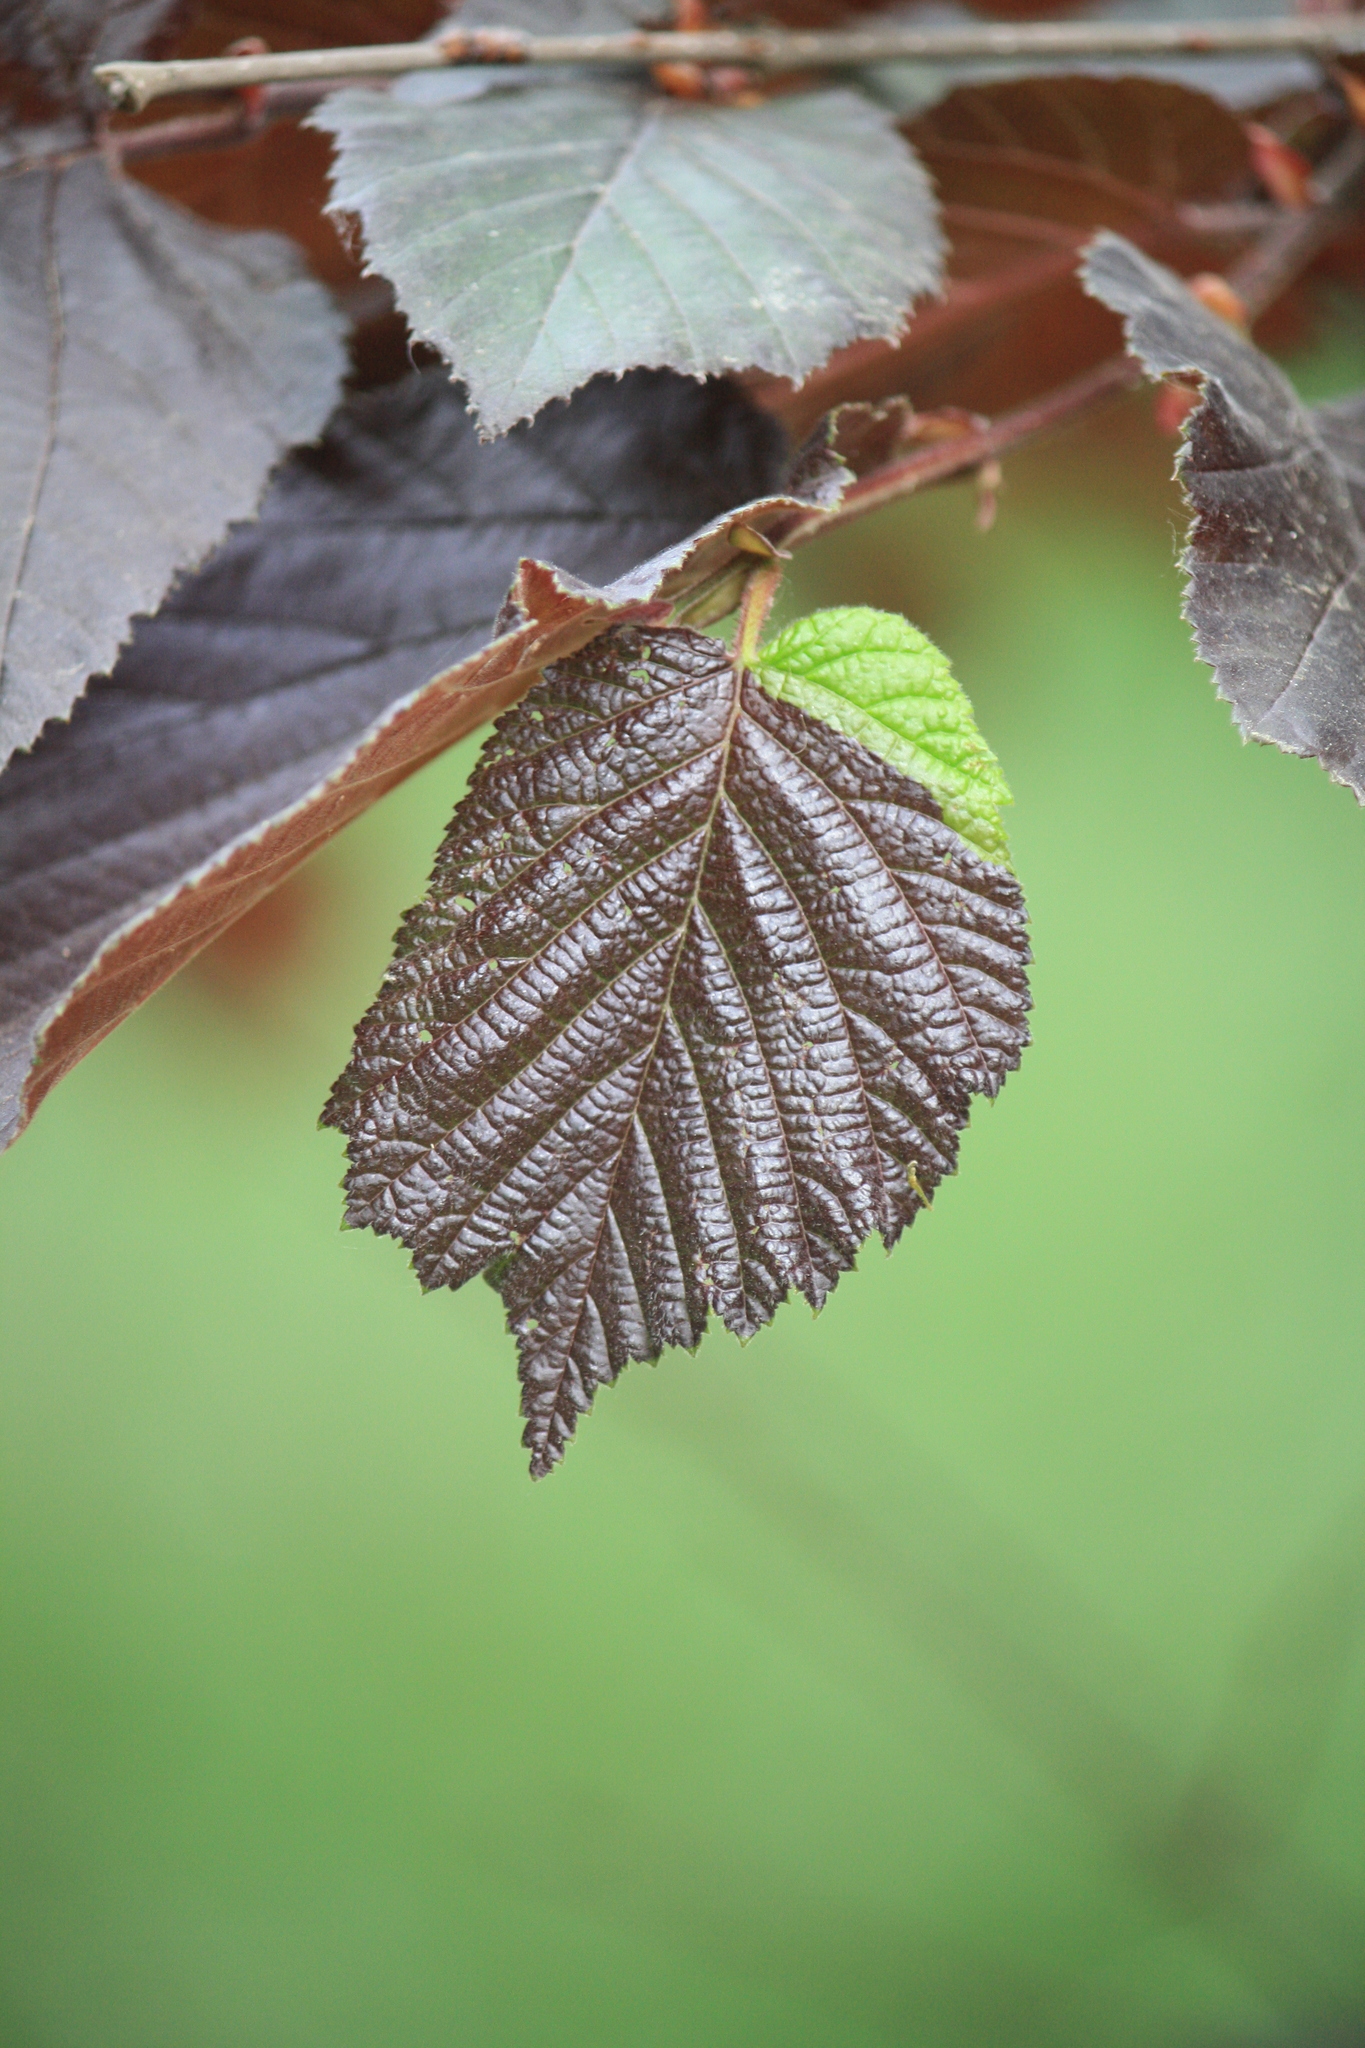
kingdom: Plantae
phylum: Tracheophyta
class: Magnoliopsida
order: Fagales
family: Betulaceae
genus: Corylus
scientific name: Corylus avellana
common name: European hazel
